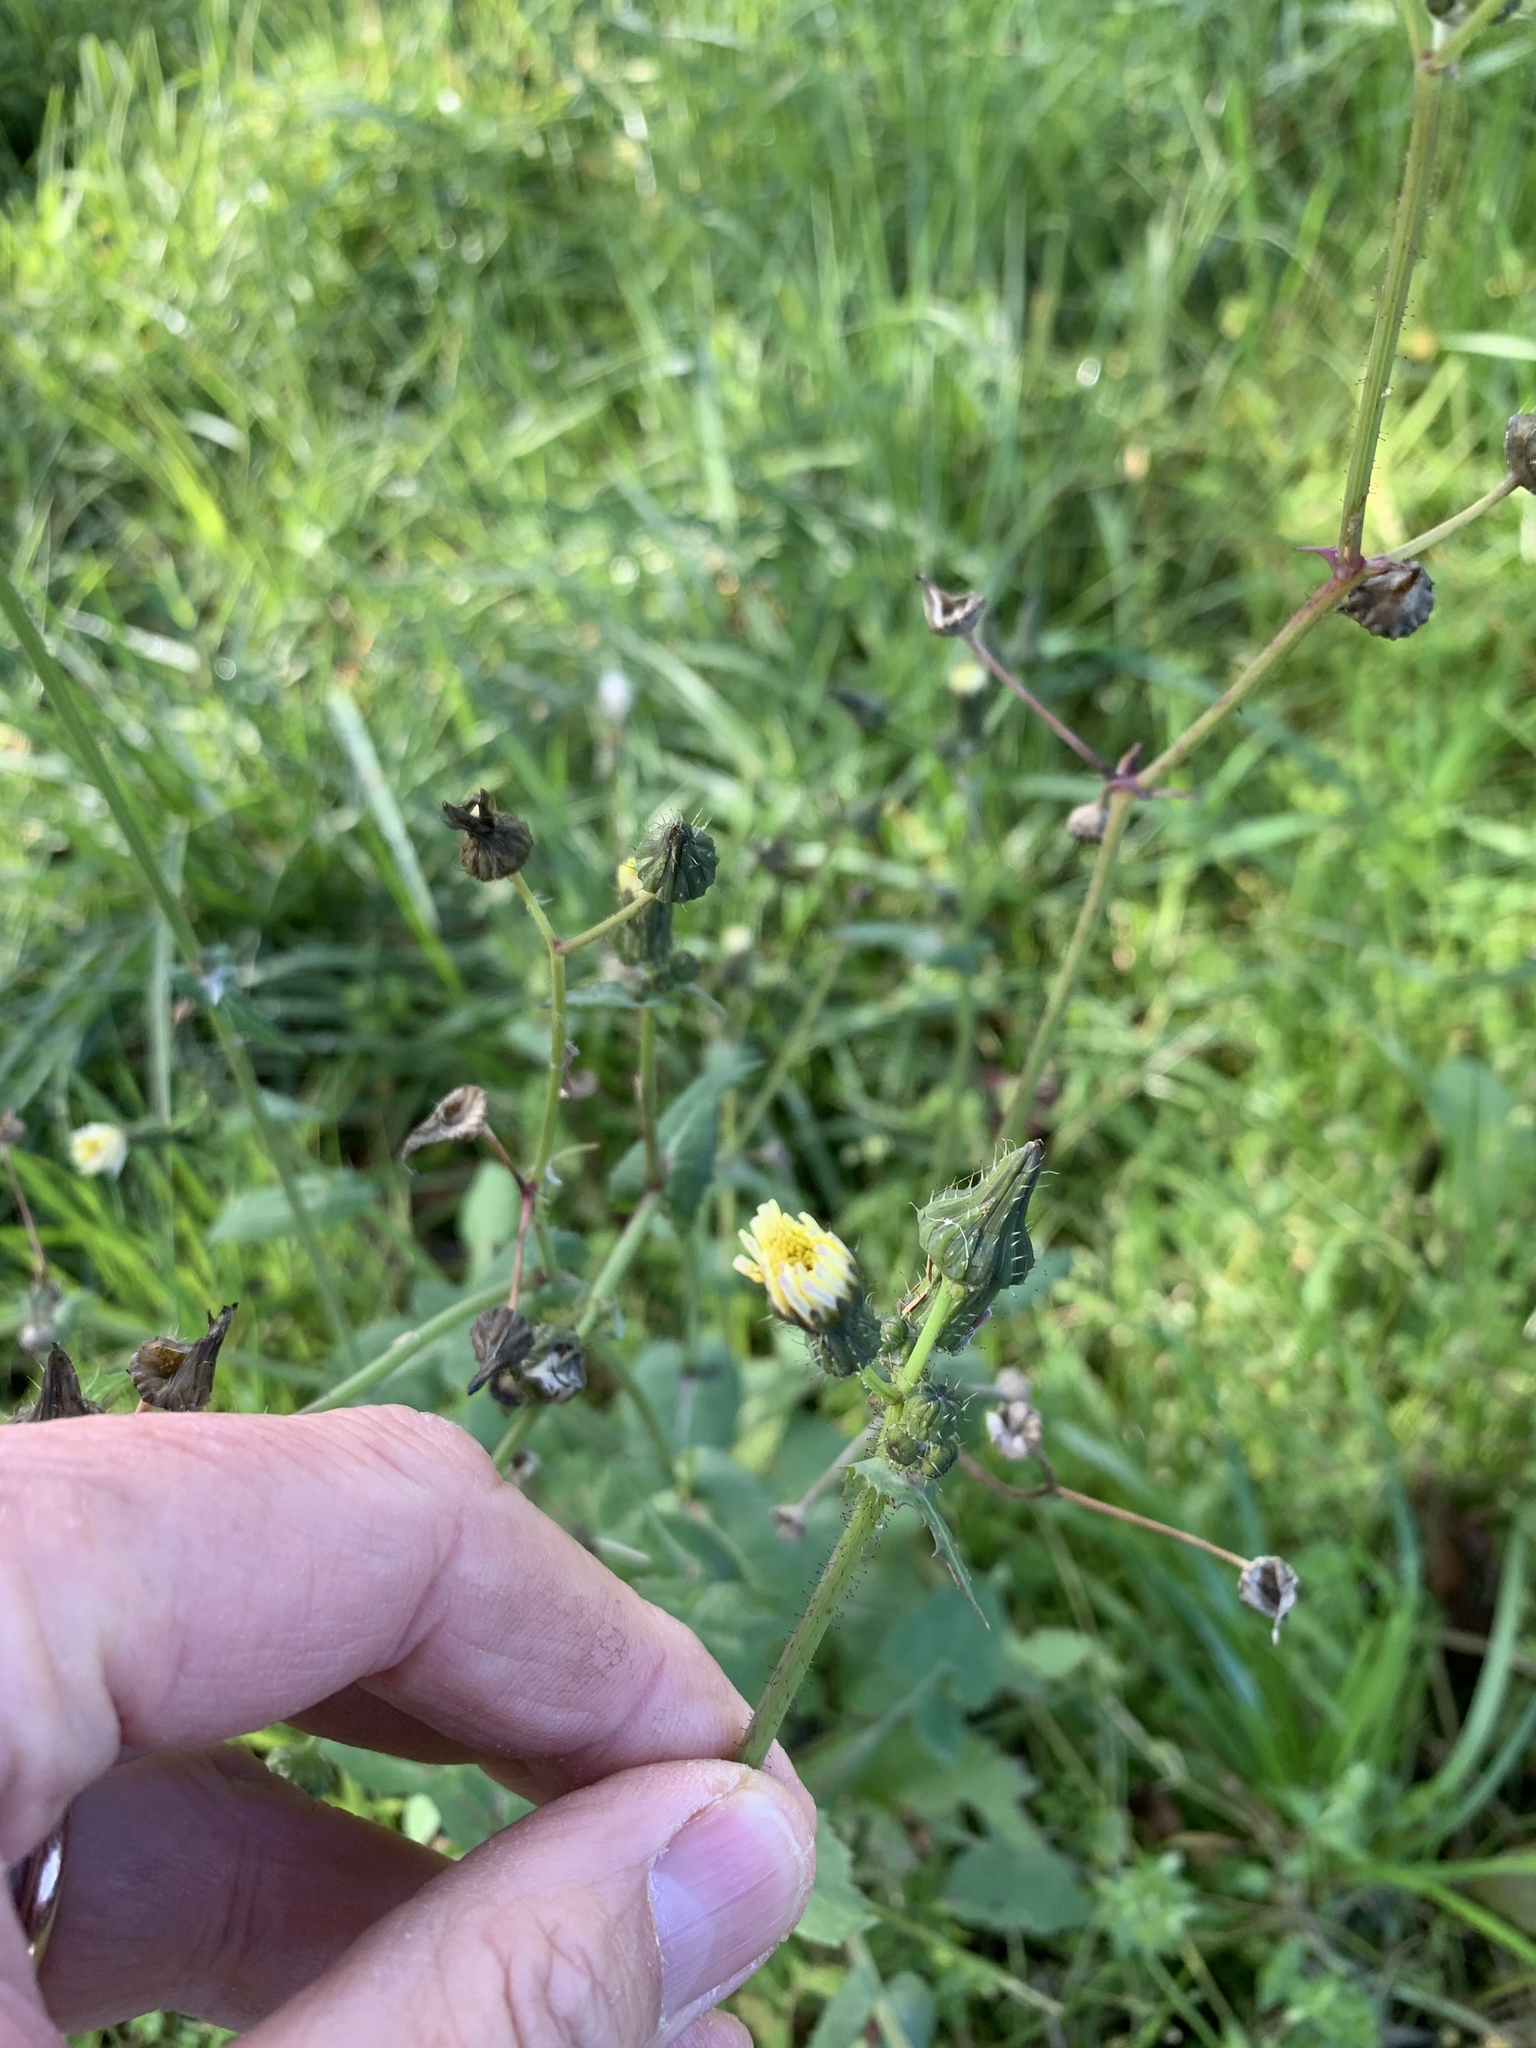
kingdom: Plantae
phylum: Tracheophyta
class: Magnoliopsida
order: Asterales
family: Asteraceae
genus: Sonchus
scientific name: Sonchus oleraceus
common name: Common sowthistle
